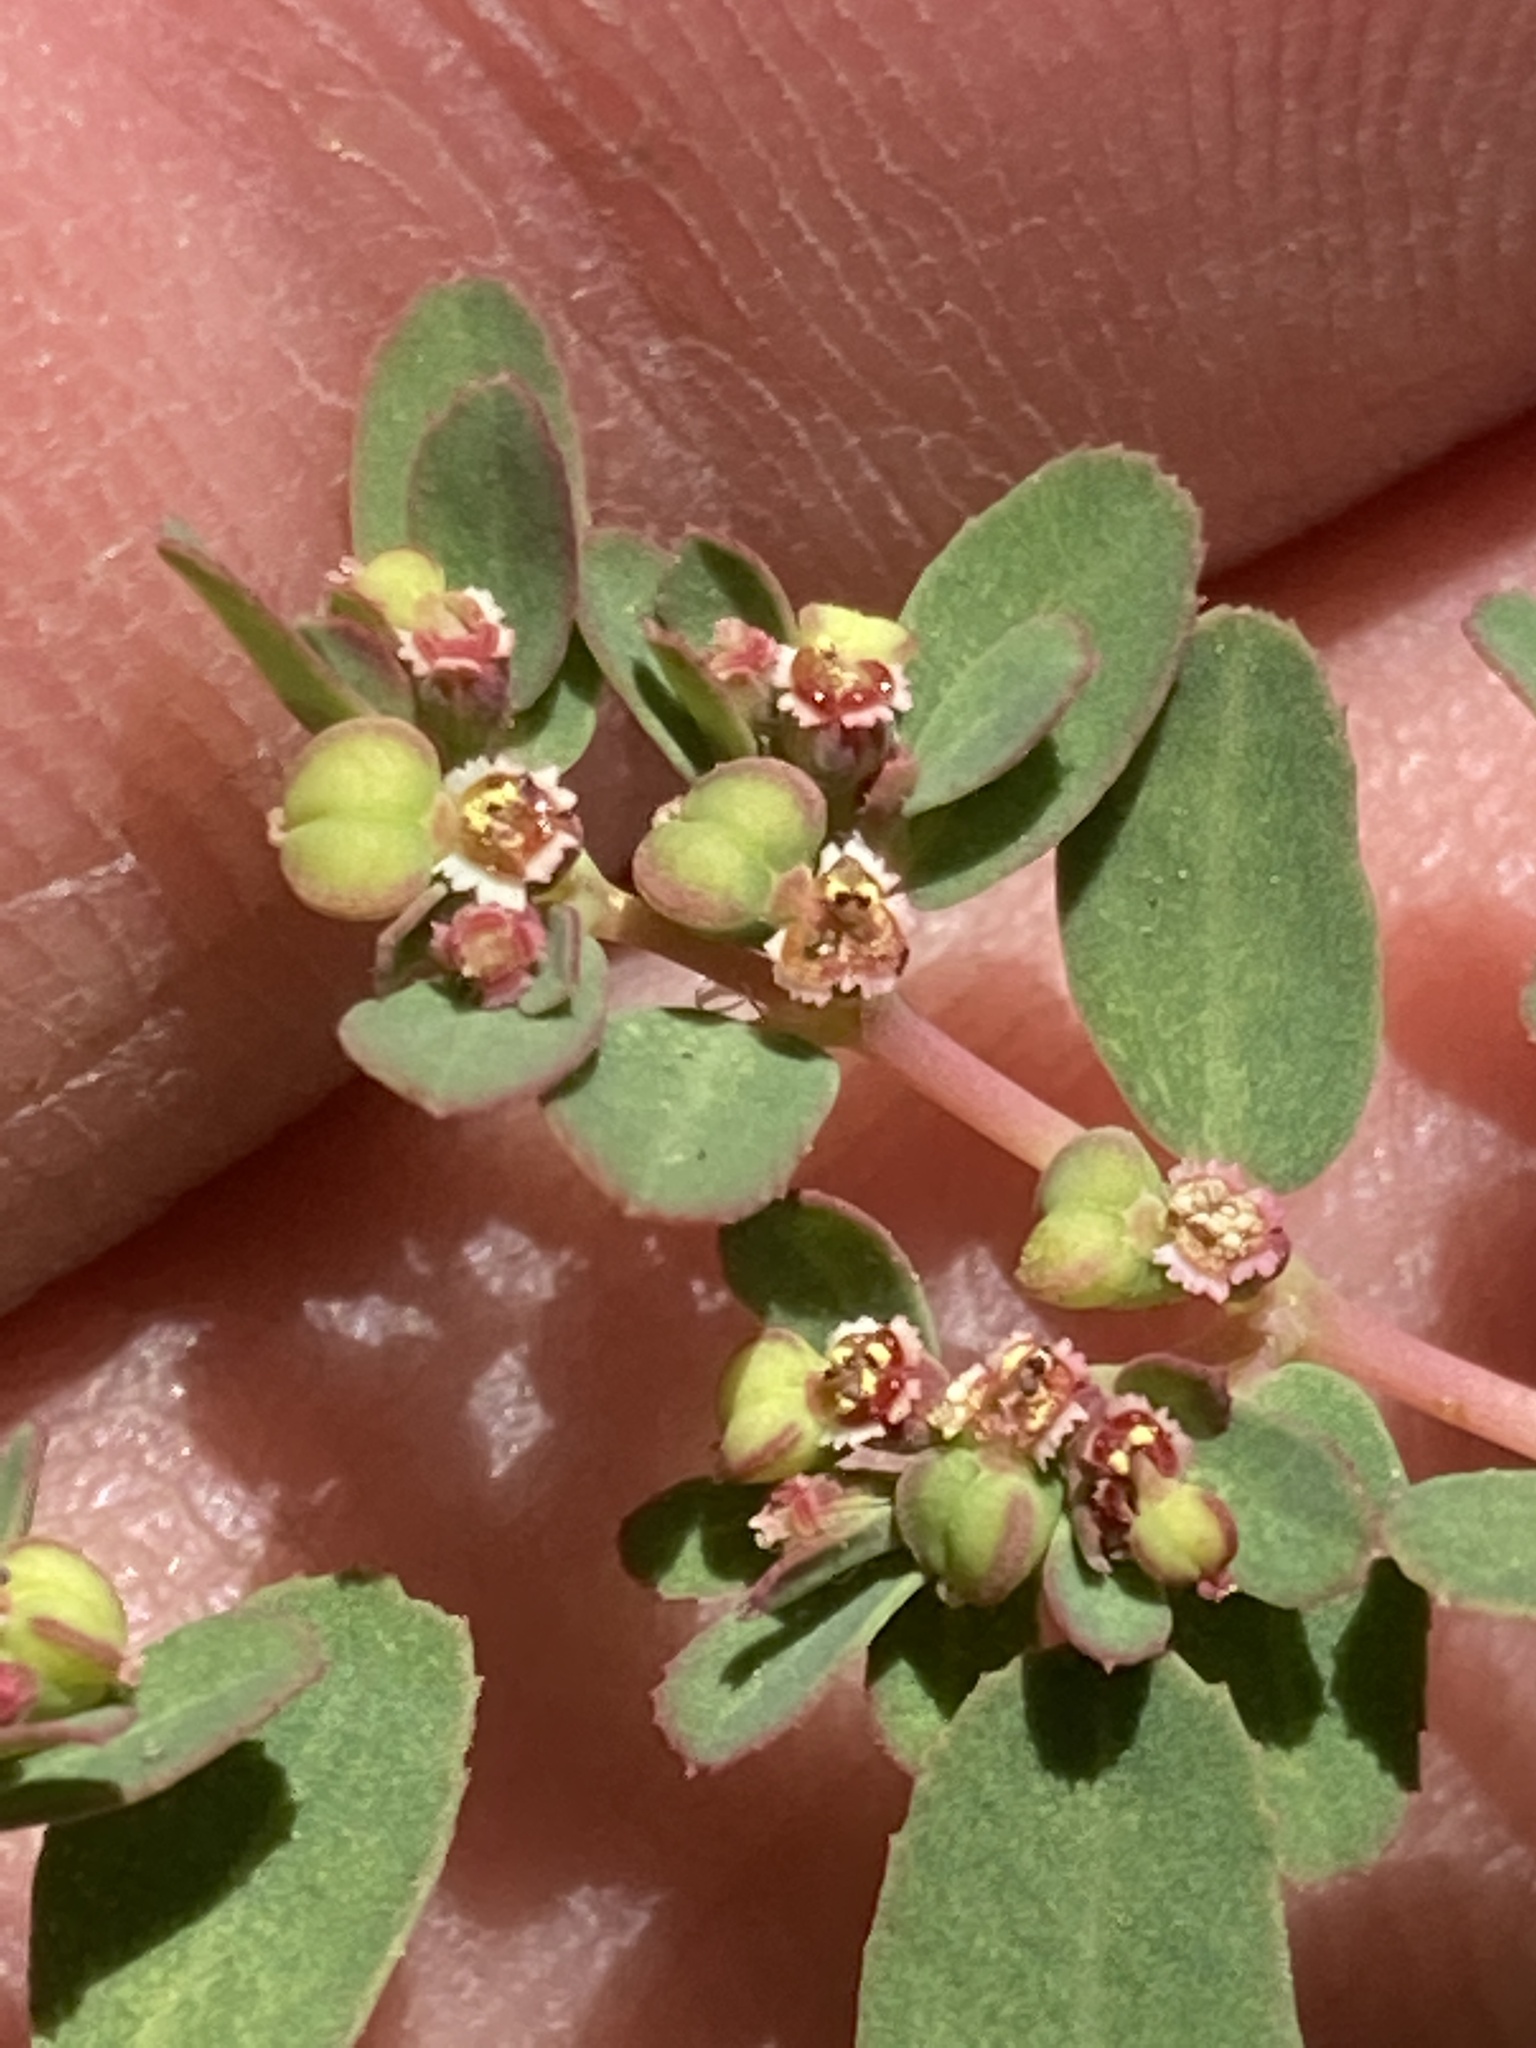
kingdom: Plantae
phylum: Tracheophyta
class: Magnoliopsida
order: Malpighiales
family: Euphorbiaceae
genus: Euphorbia
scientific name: Euphorbia serpillifolia
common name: Thyme-leaf spurge
